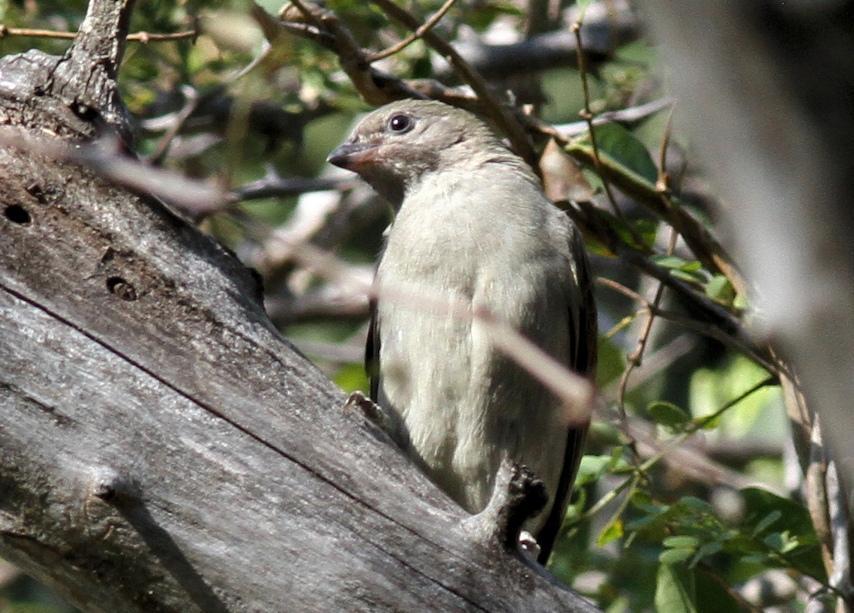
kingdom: Animalia
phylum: Chordata
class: Aves
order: Piciformes
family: Indicatoridae
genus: Indicator
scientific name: Indicator minor
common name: Lesser honeyguide
